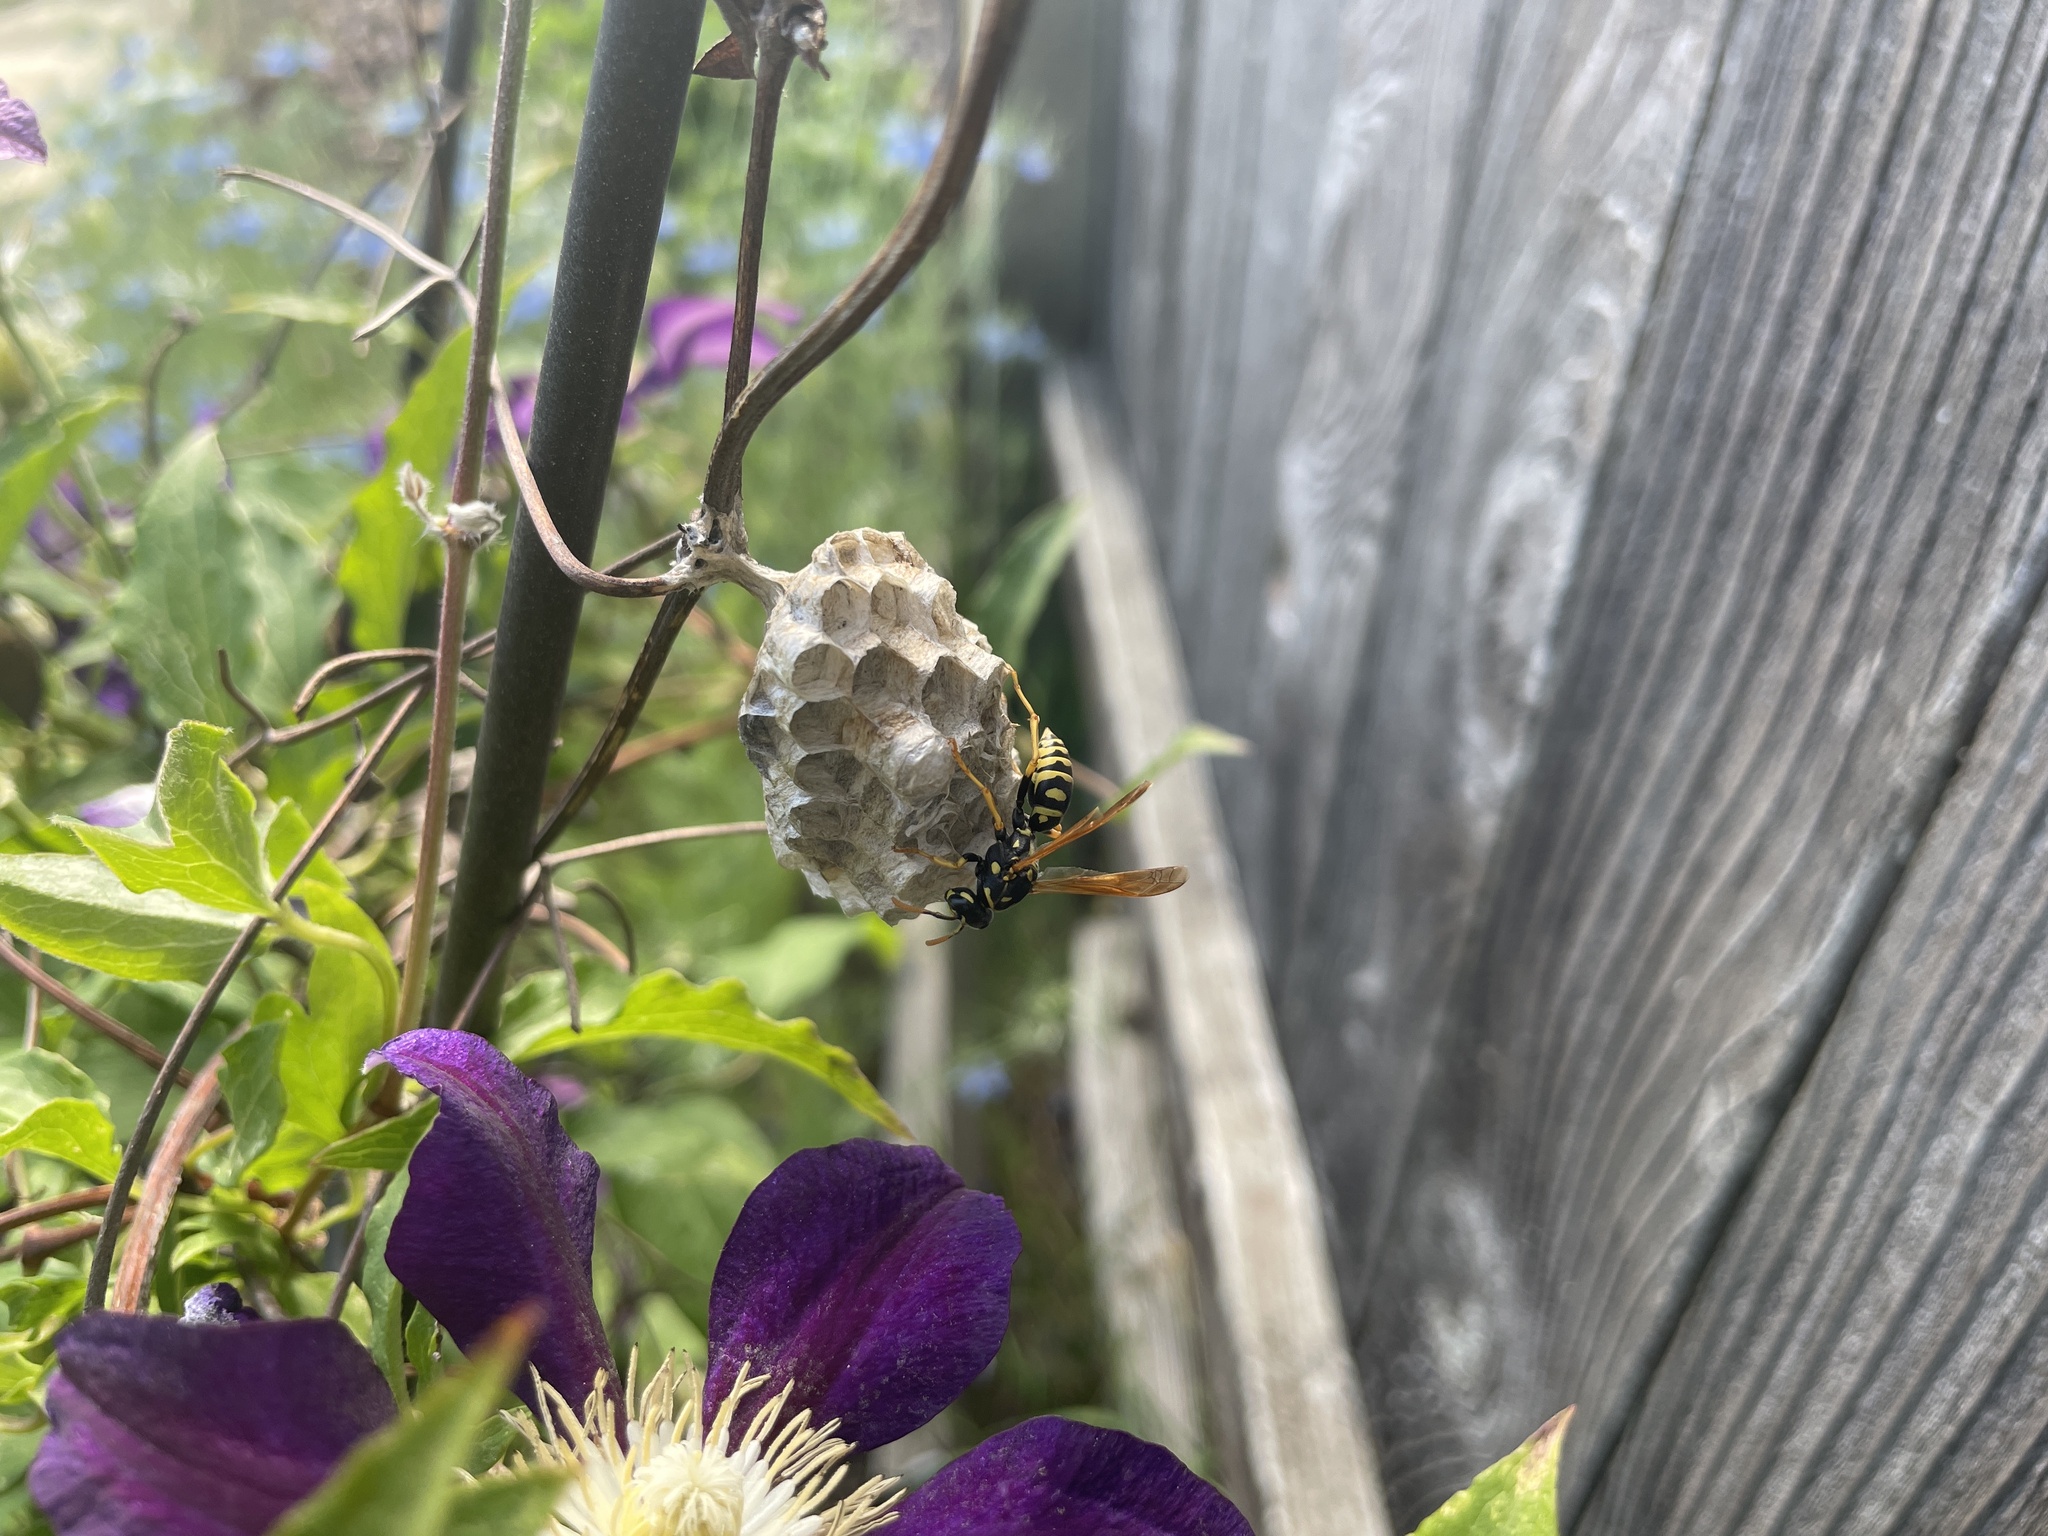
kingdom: Animalia
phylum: Arthropoda
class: Insecta
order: Hymenoptera
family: Eumenidae
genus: Polistes
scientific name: Polistes dominula
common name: Paper wasp
